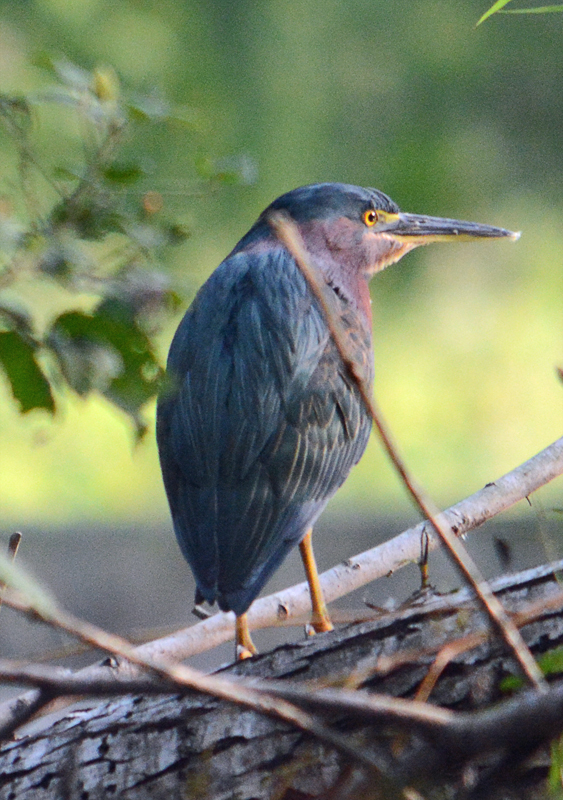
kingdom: Animalia
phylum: Chordata
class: Aves
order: Pelecaniformes
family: Ardeidae
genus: Butorides
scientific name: Butorides virescens
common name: Green heron
